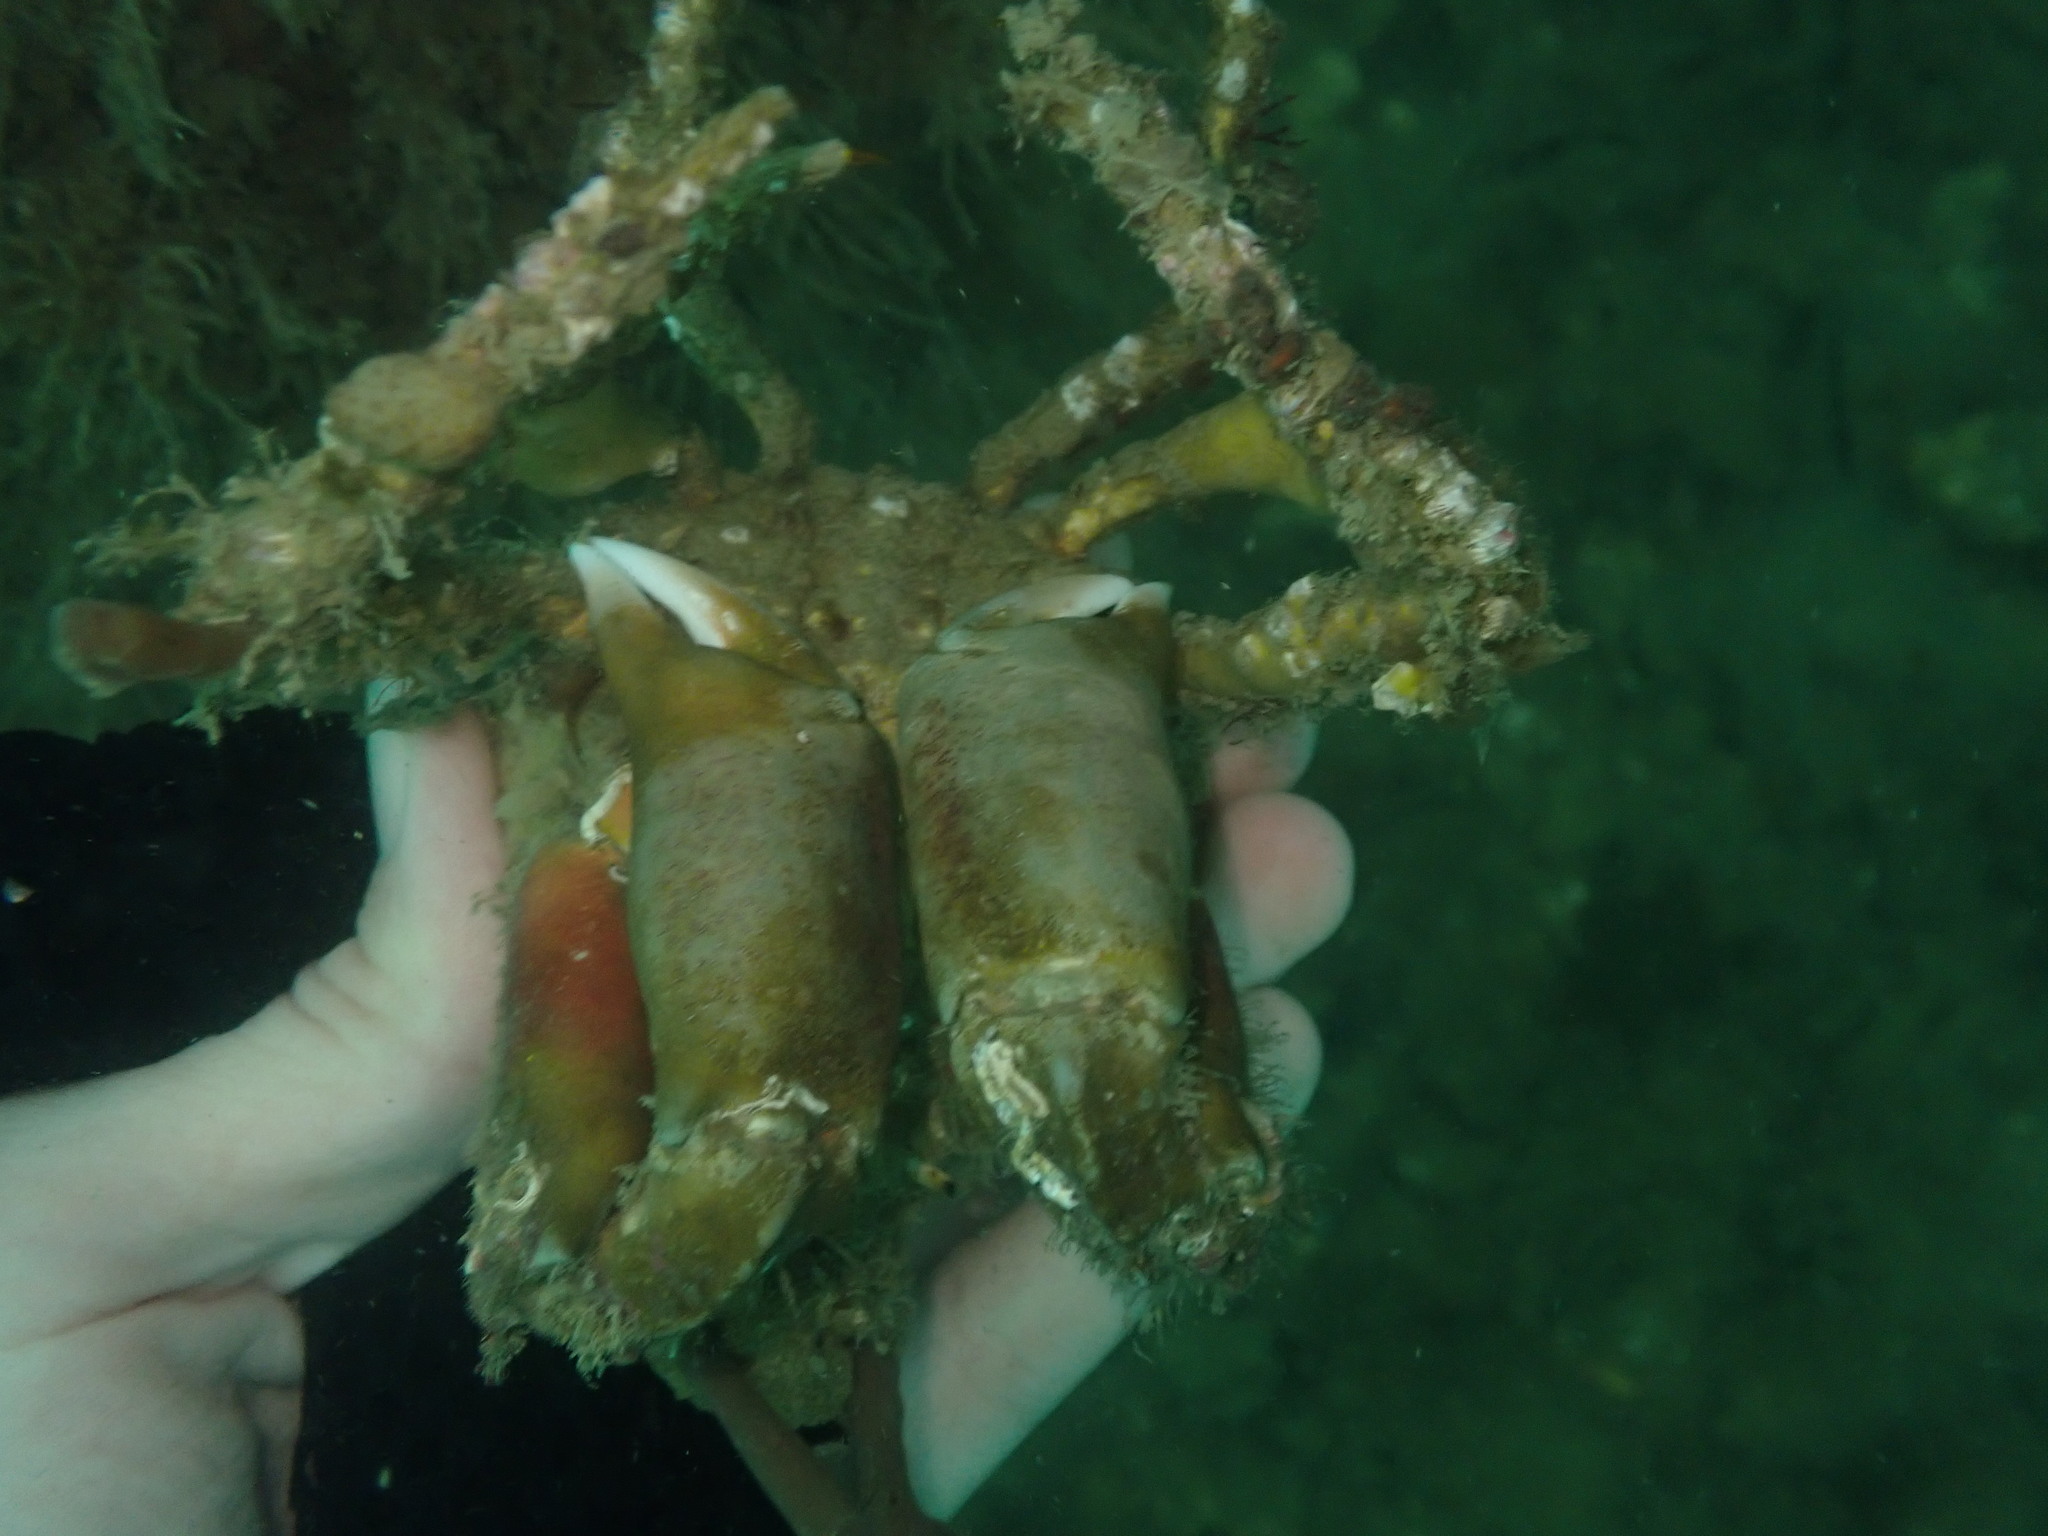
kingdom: Animalia
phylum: Arthropoda
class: Malacostraca
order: Decapoda
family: Majidae
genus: Notomithrax
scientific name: Notomithrax peronii
